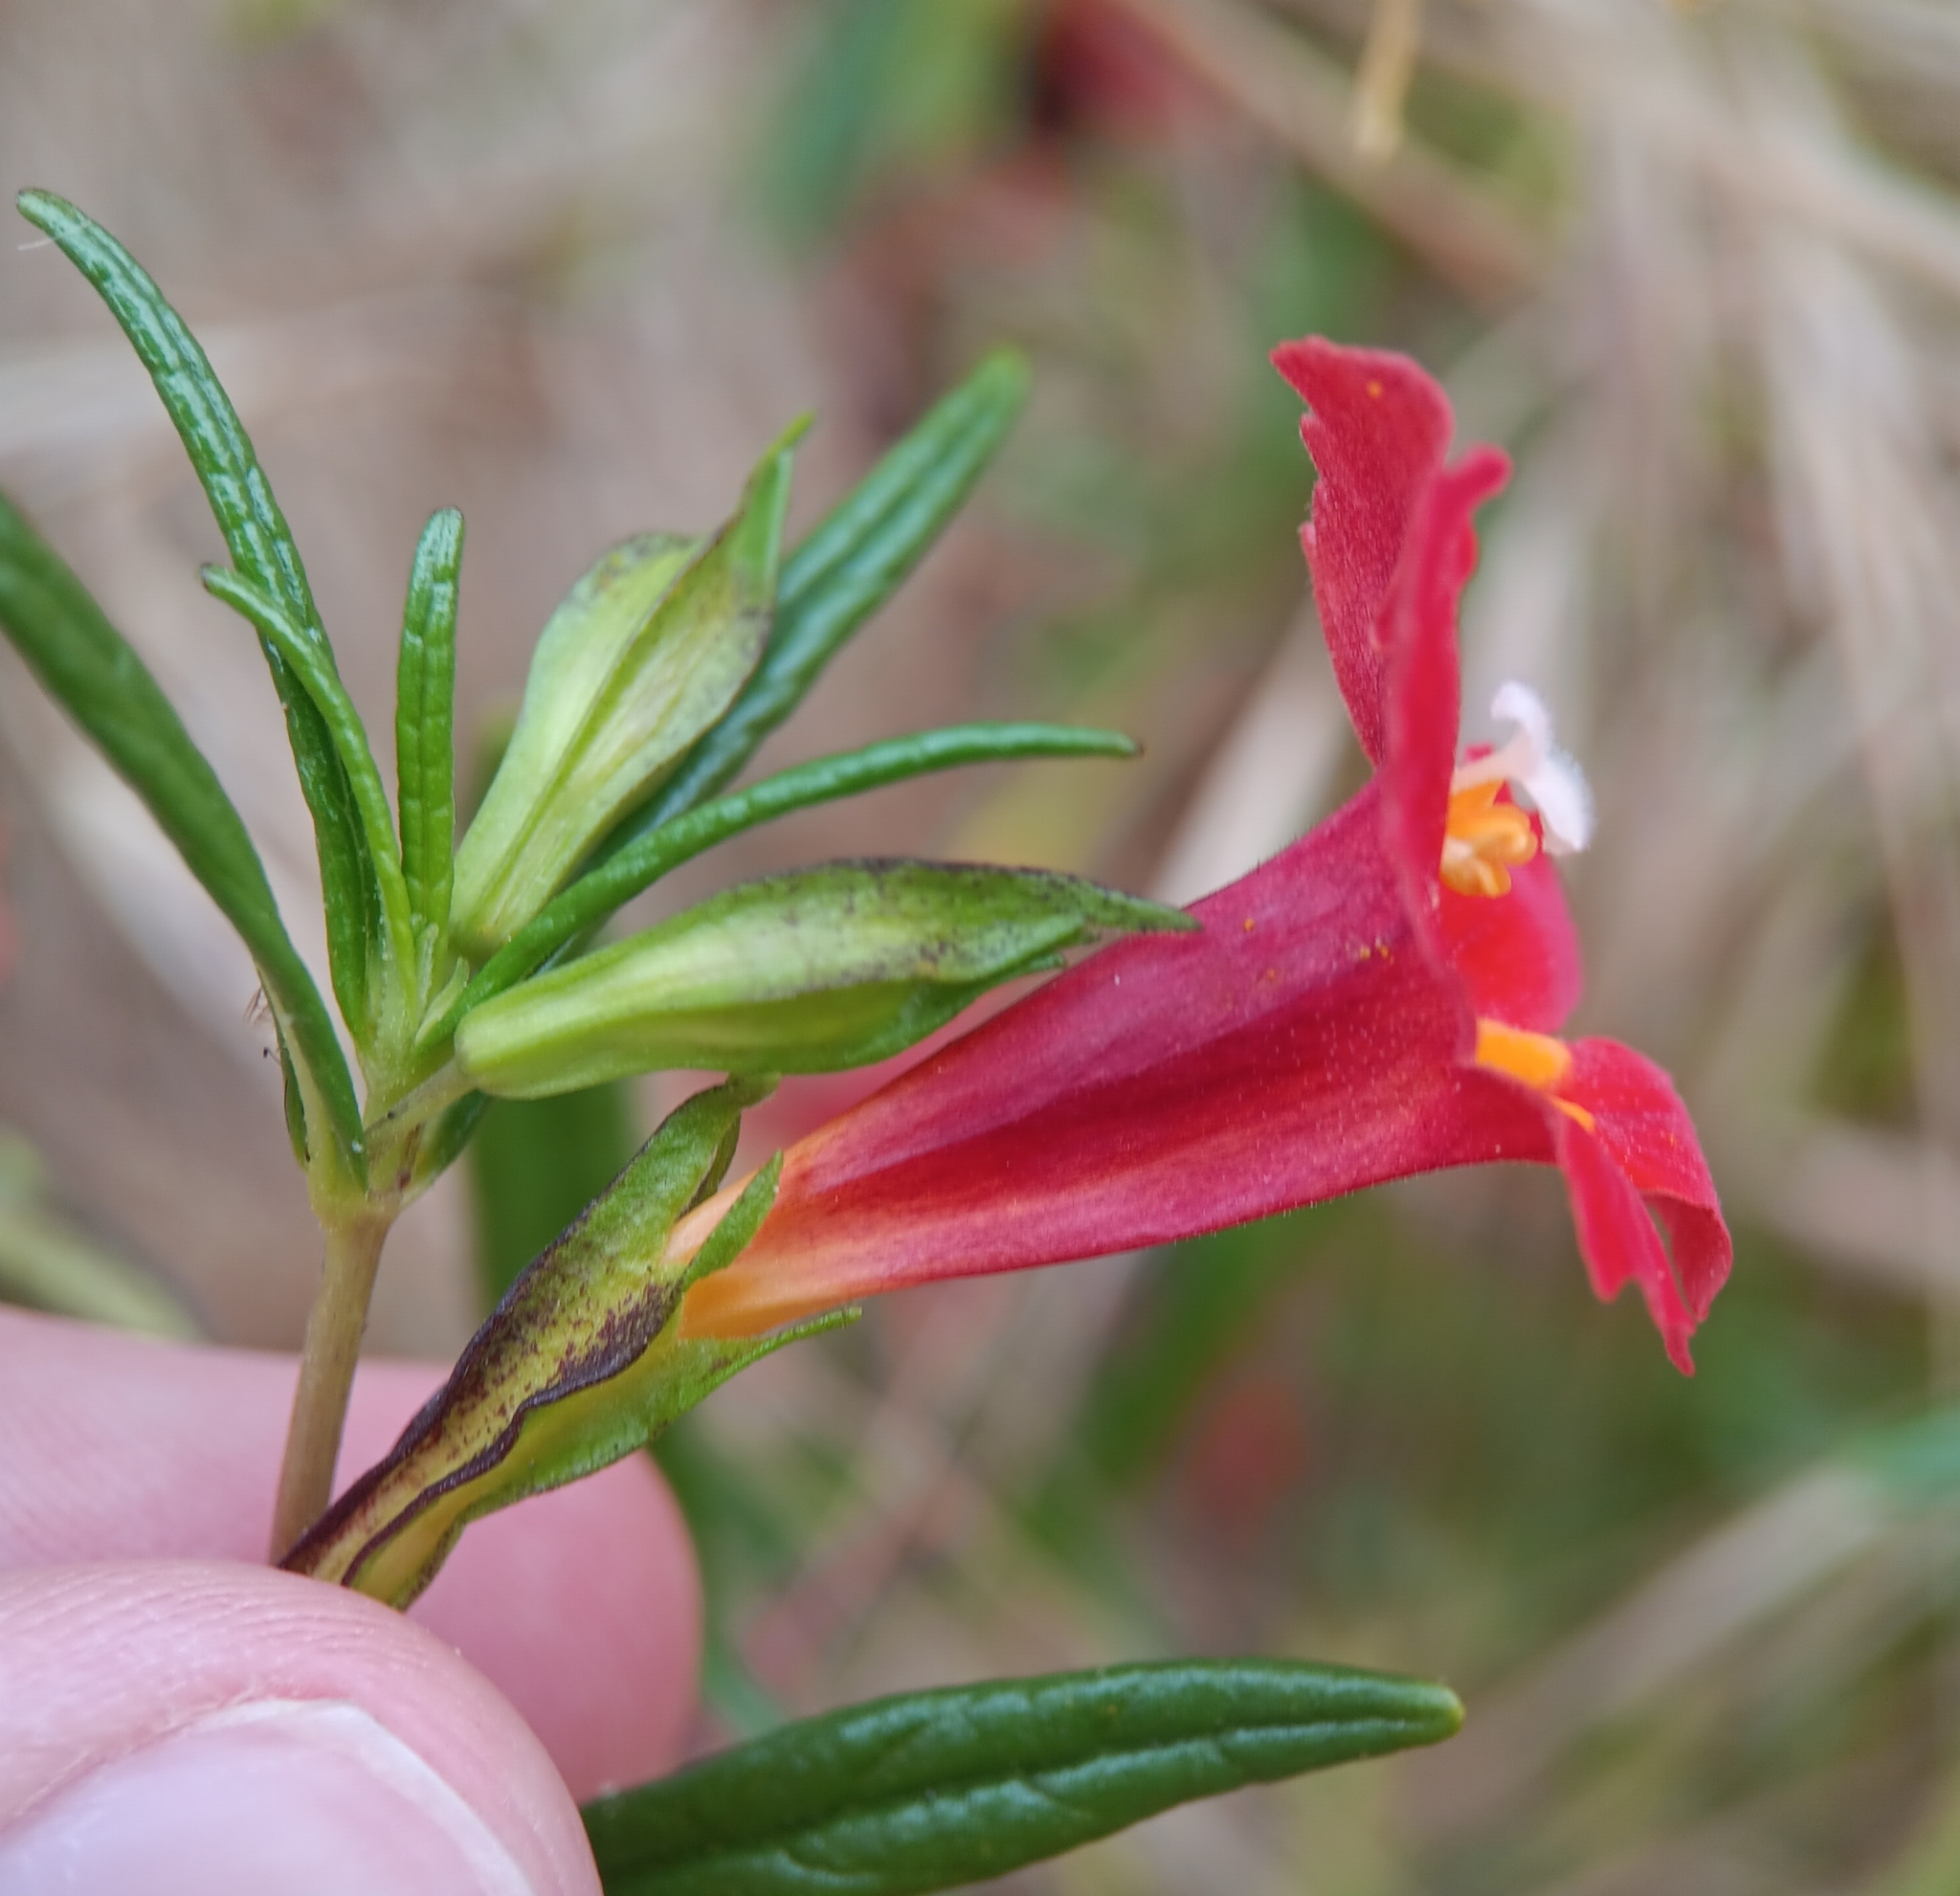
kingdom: Plantae
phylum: Tracheophyta
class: Magnoliopsida
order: Lamiales
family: Phrymaceae
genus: Diplacus
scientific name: Diplacus puniceus
